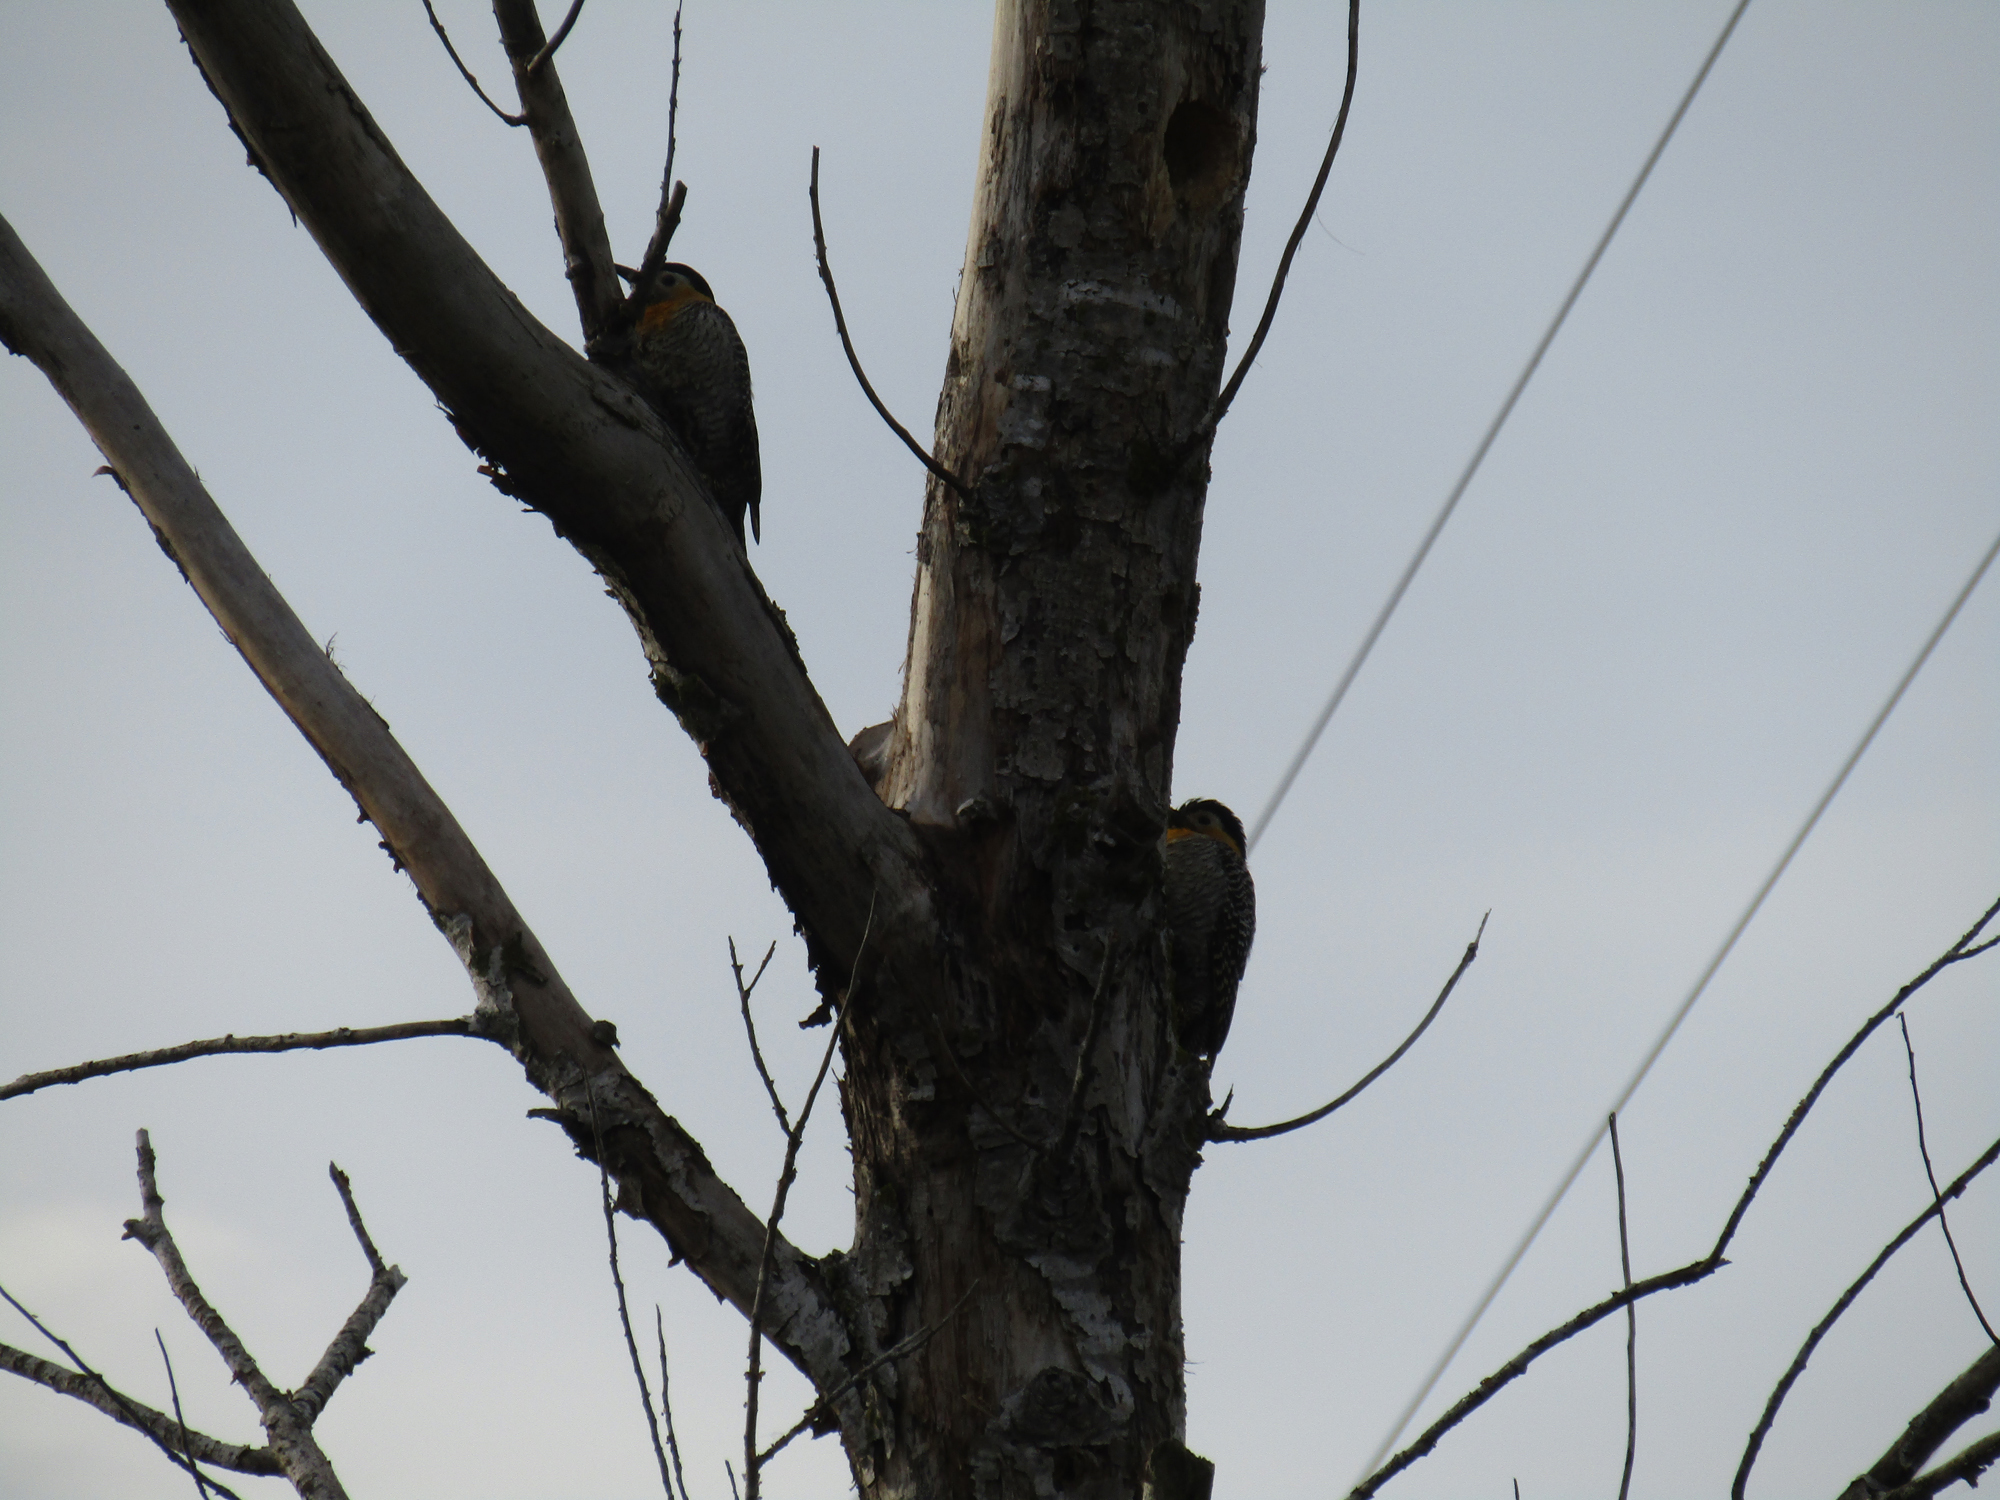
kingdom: Animalia
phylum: Chordata
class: Aves
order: Piciformes
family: Picidae
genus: Colaptes
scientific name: Colaptes campestris
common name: Campo flicker
